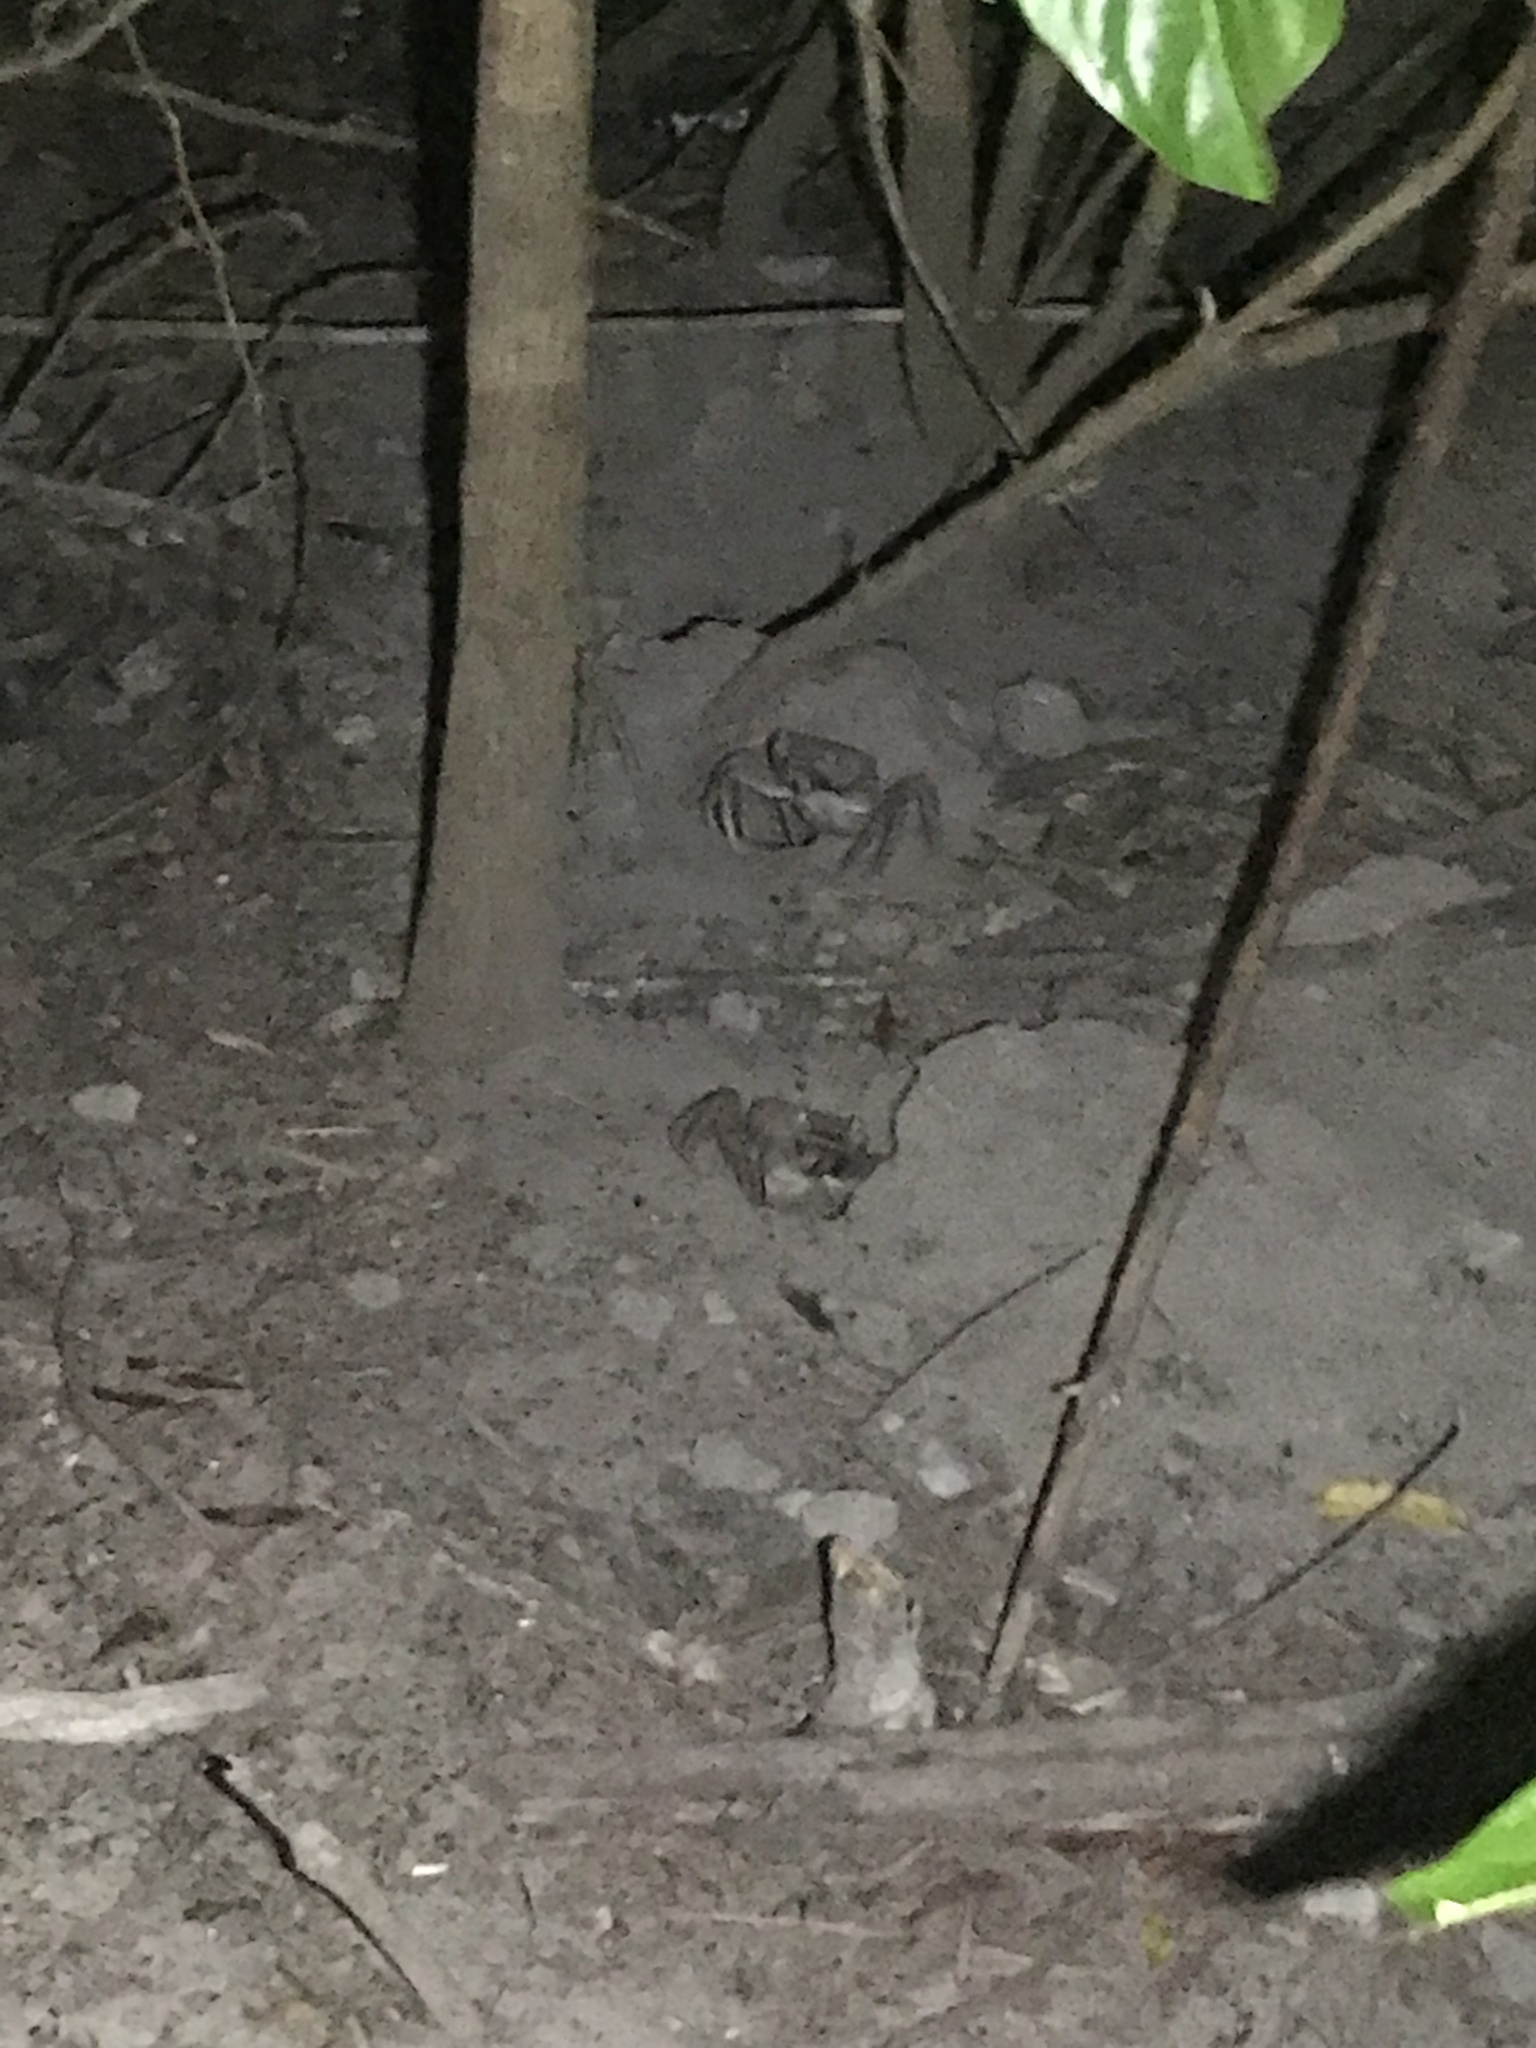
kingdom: Animalia
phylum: Arthropoda
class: Malacostraca
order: Decapoda
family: Gecarcinidae
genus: Cardisoma
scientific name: Cardisoma guanhumi
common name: Great land crab
